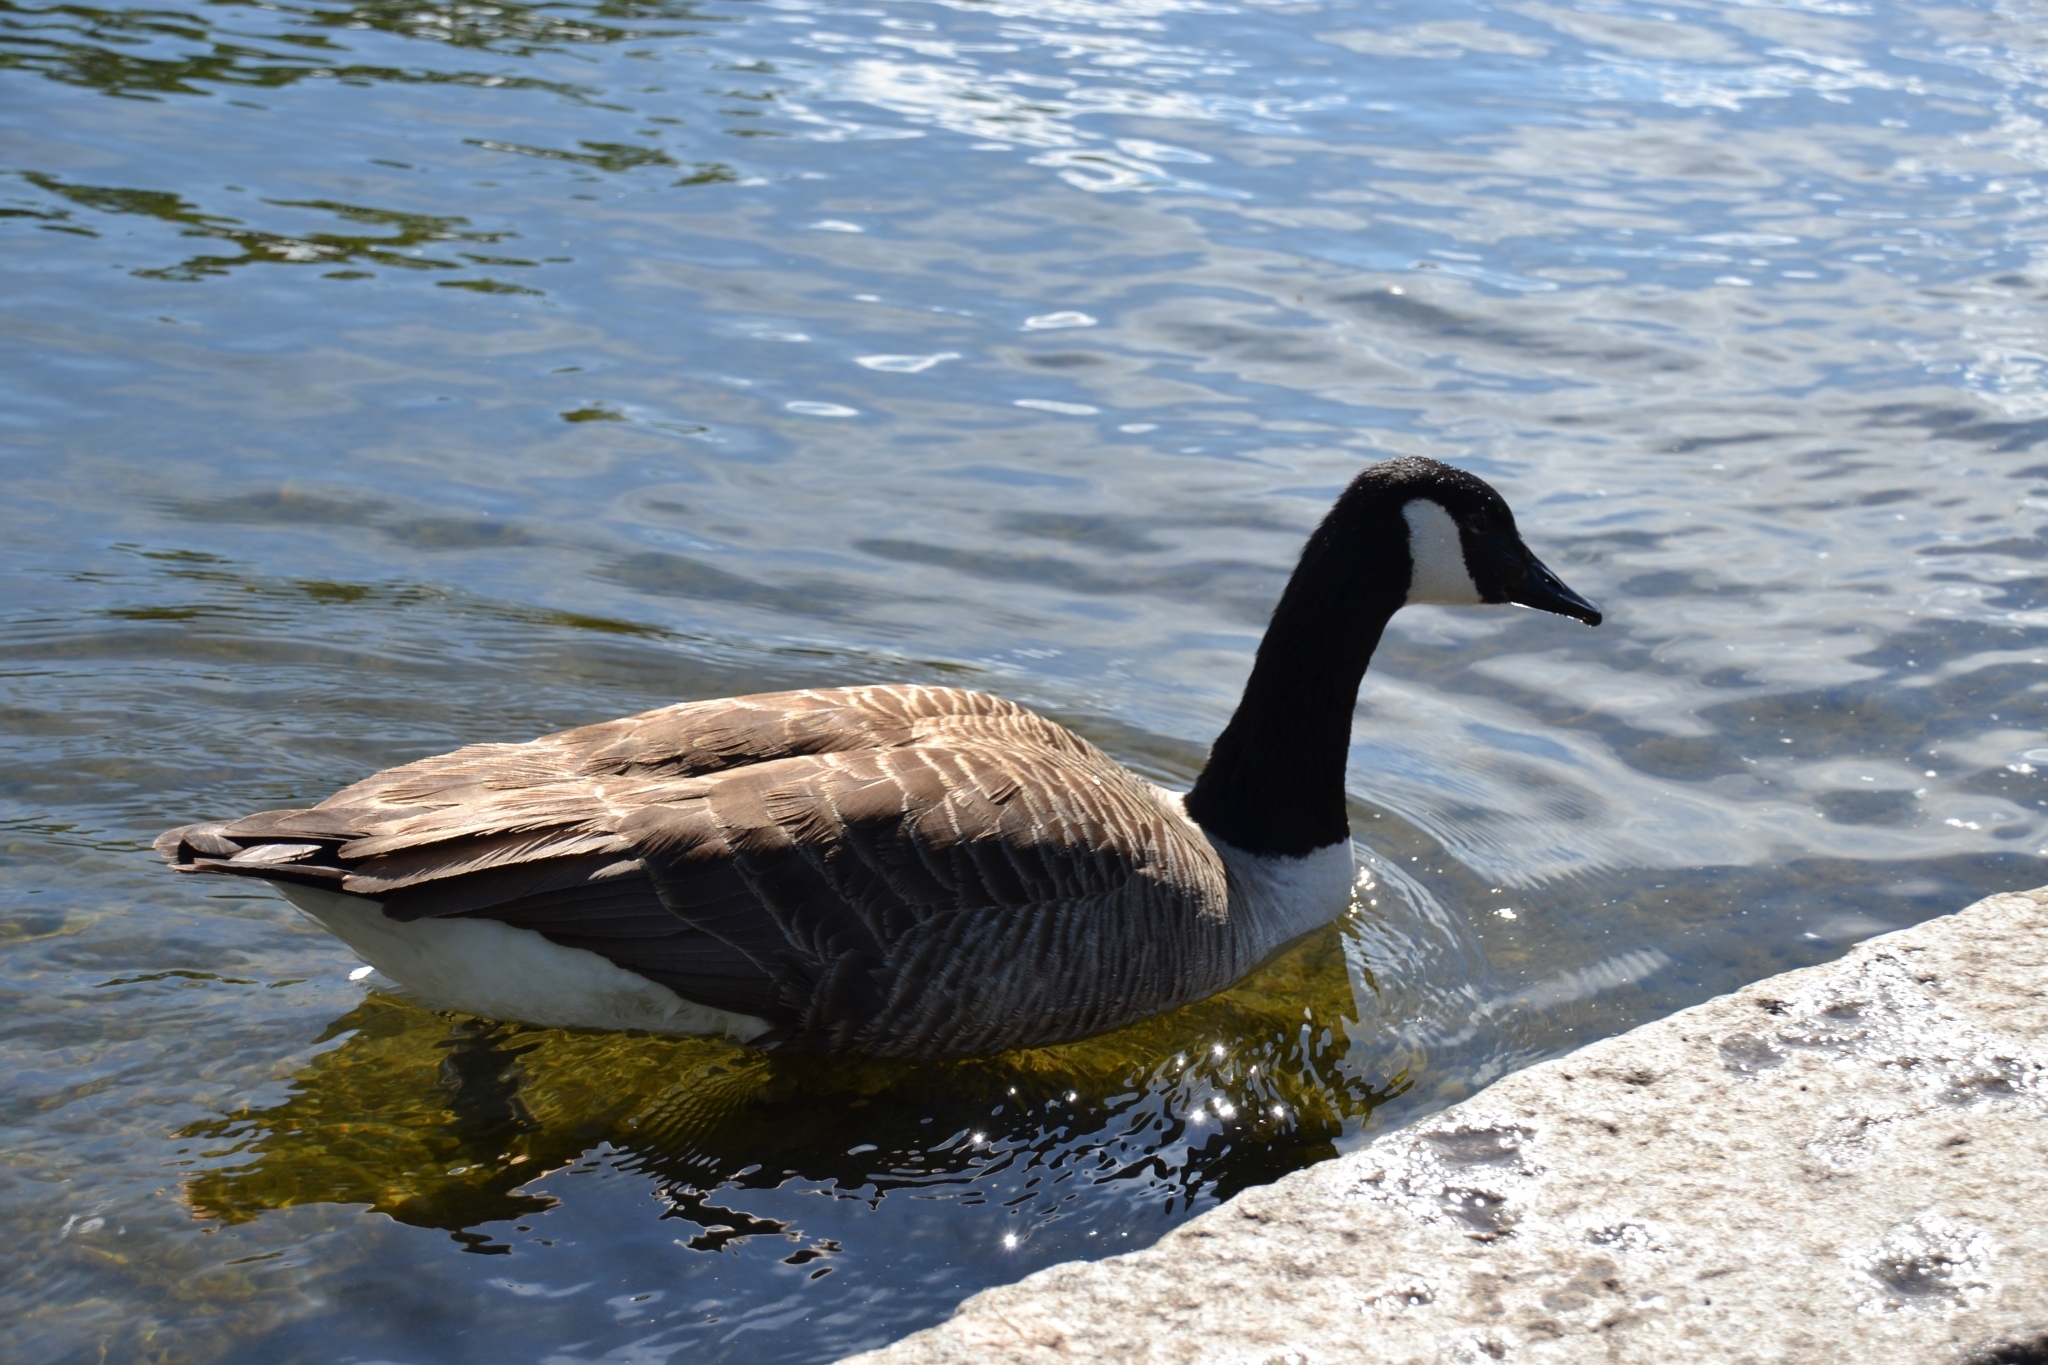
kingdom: Animalia
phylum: Chordata
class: Aves
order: Anseriformes
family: Anatidae
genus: Branta
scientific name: Branta canadensis
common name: Canada goose
